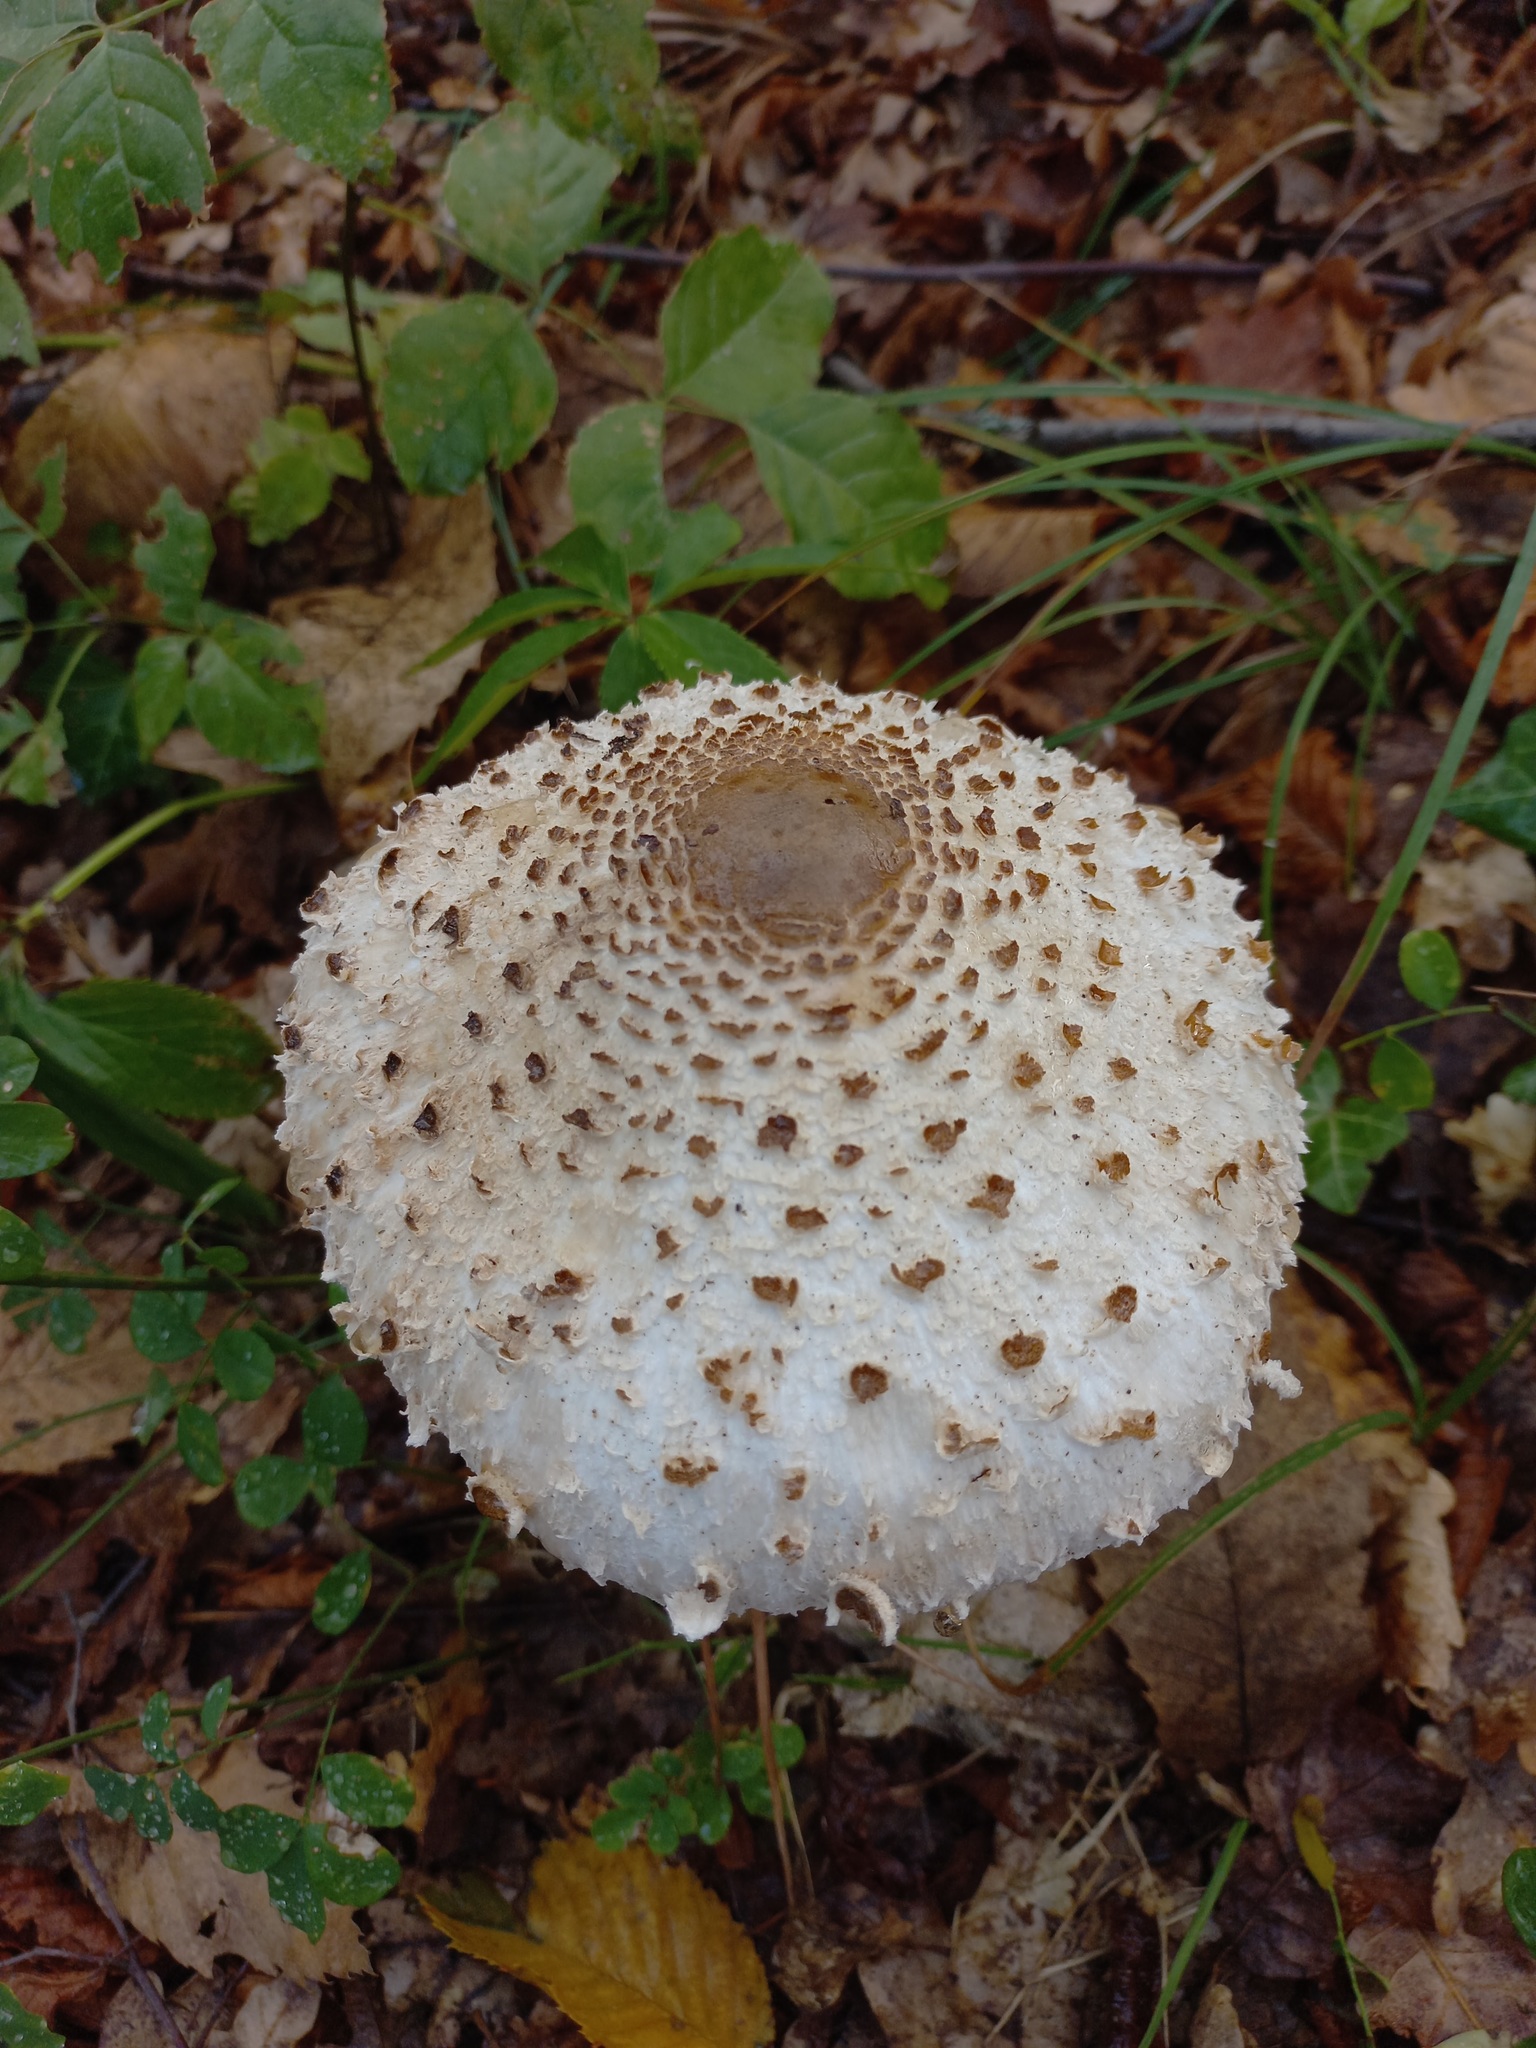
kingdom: Fungi
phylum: Basidiomycota
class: Agaricomycetes
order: Agaricales
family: Agaricaceae
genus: Macrolepiota
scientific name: Macrolepiota procera
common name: Parasol
